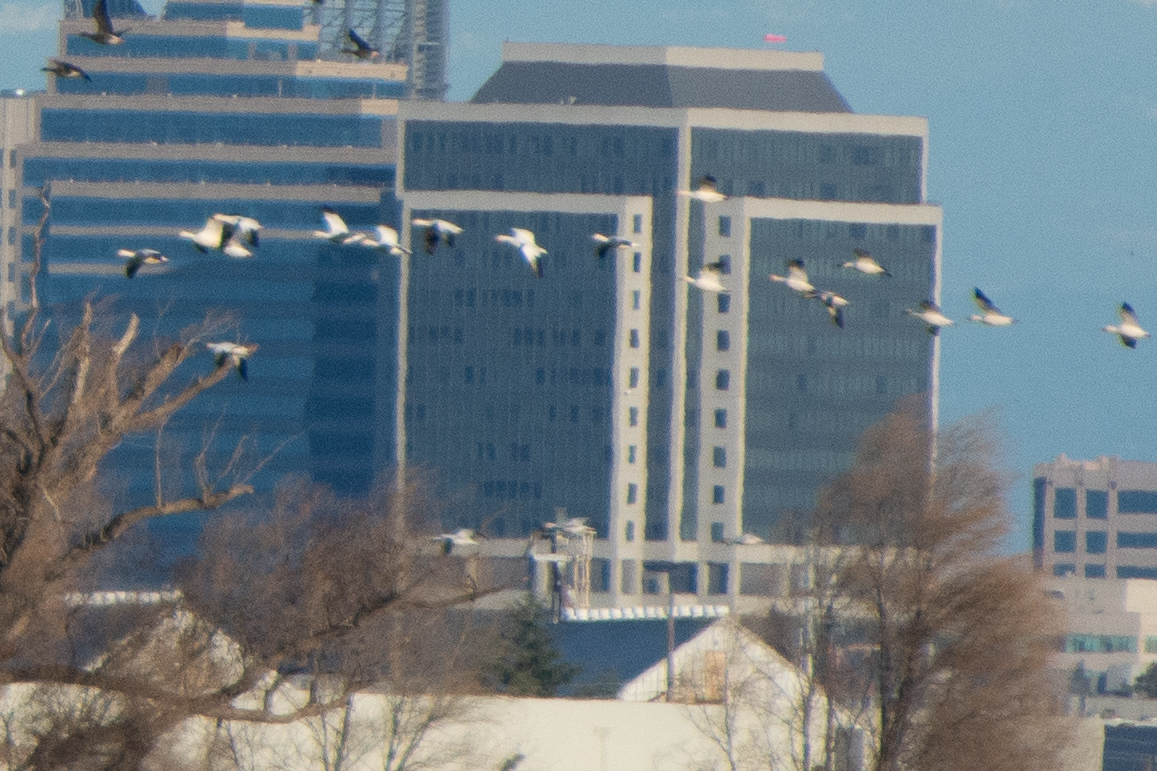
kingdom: Animalia
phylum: Chordata
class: Aves
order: Anseriformes
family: Anatidae
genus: Anser
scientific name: Anser caerulescens
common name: Snow goose
